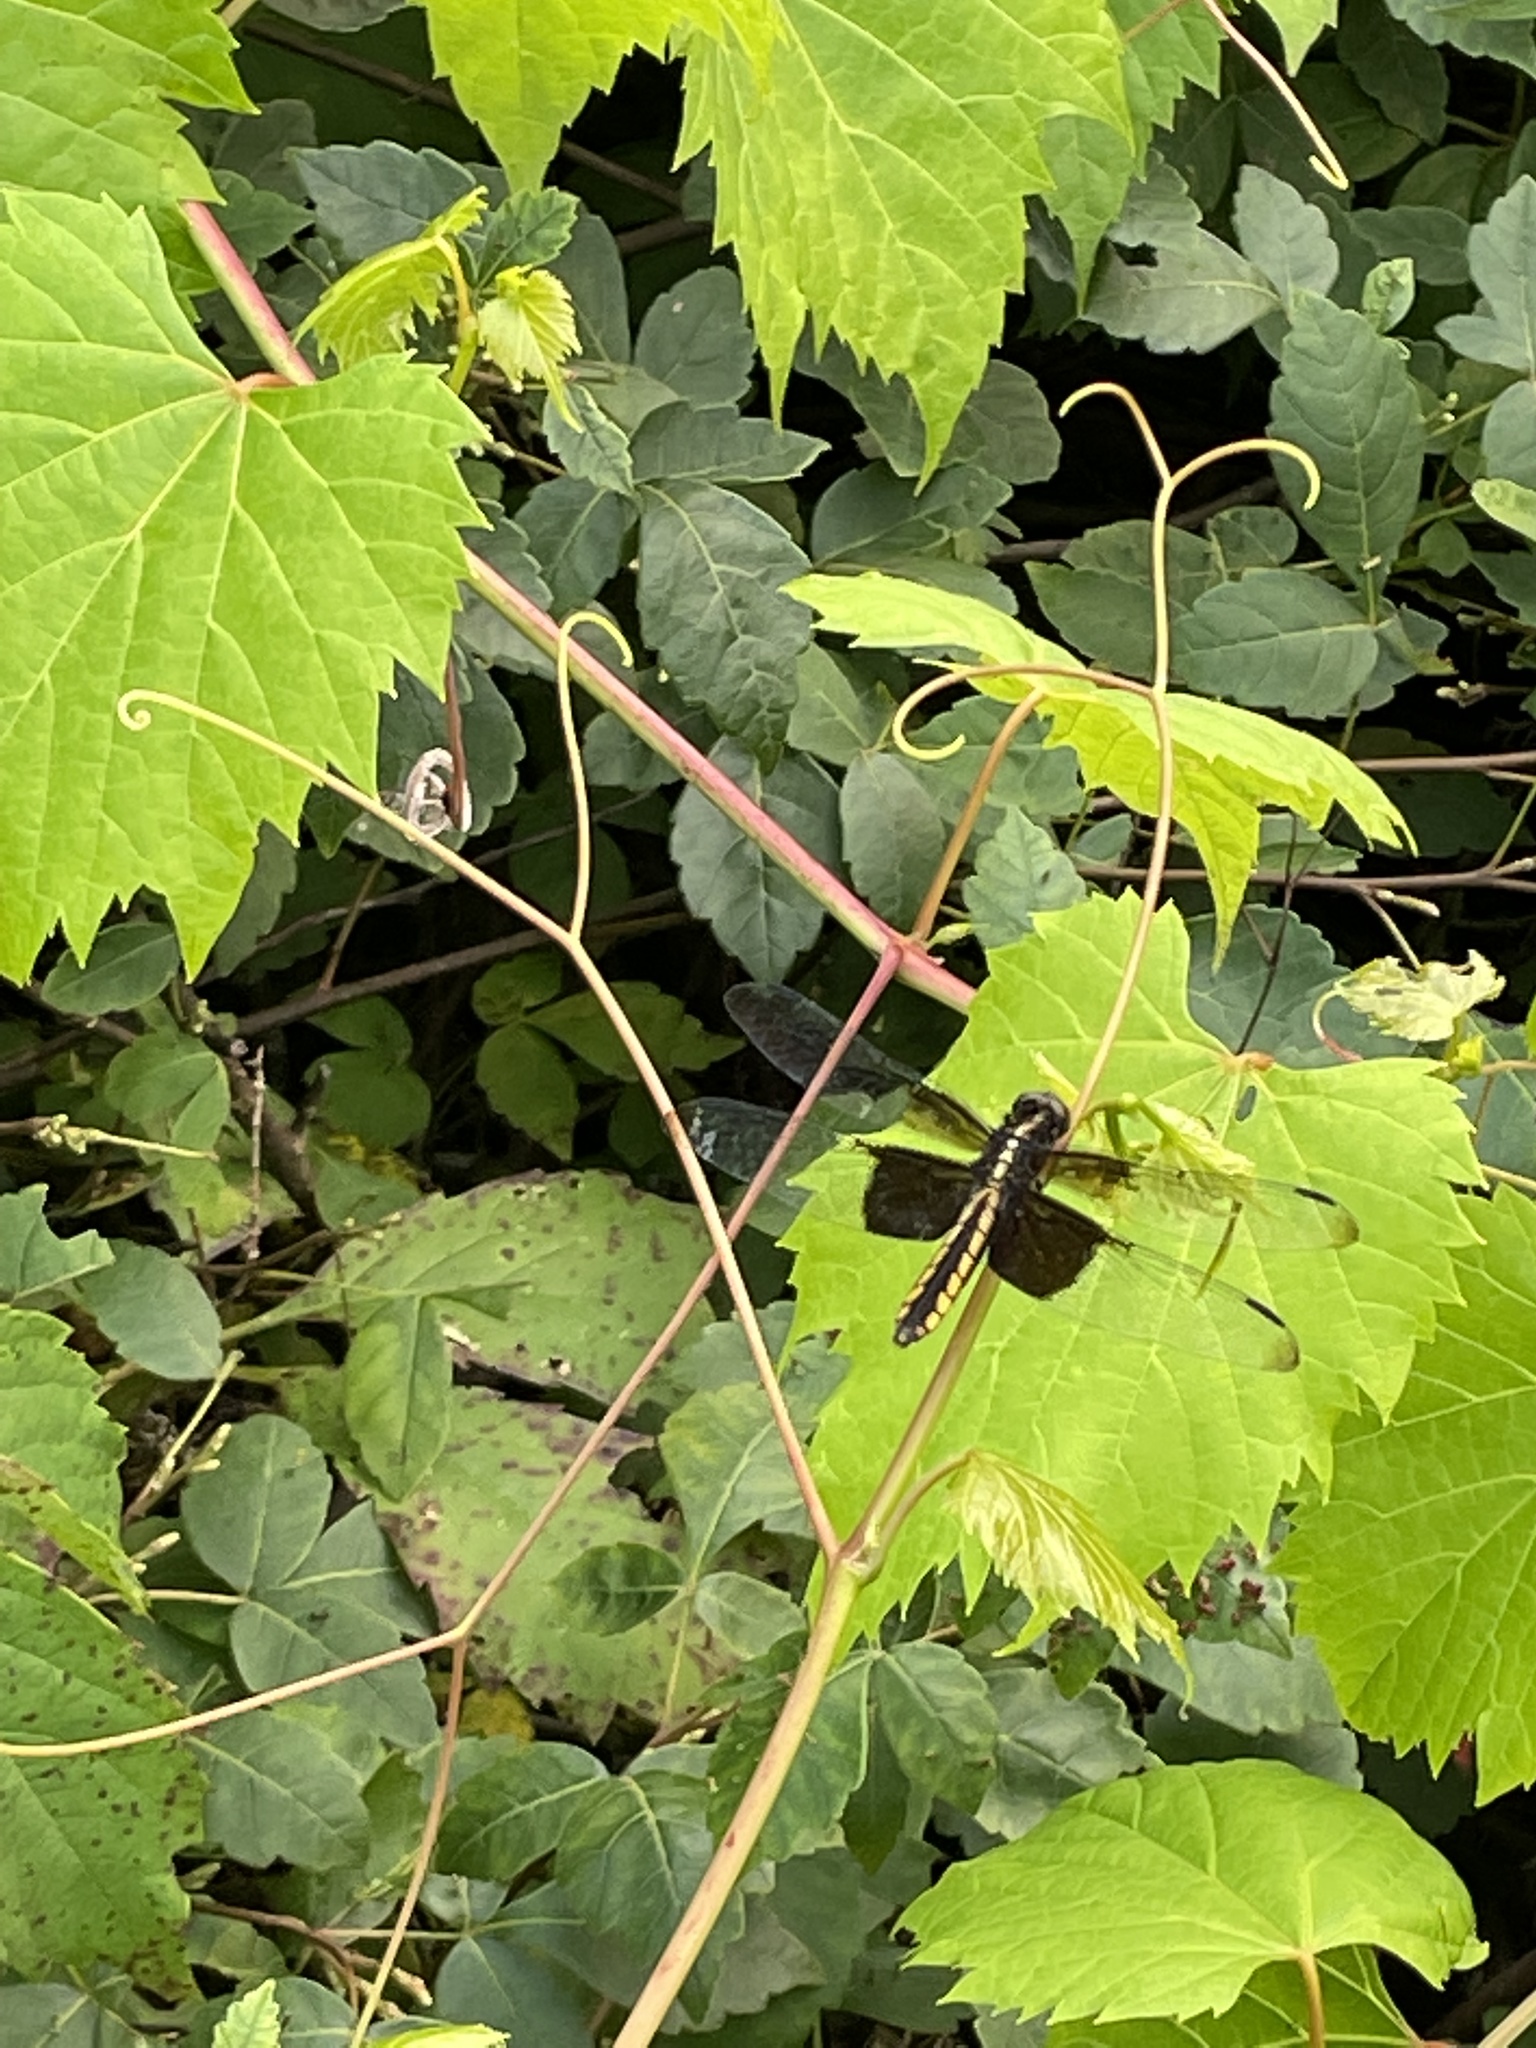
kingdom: Animalia
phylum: Arthropoda
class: Insecta
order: Odonata
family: Libellulidae
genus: Libellula
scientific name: Libellula luctuosa
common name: Widow skimmer
